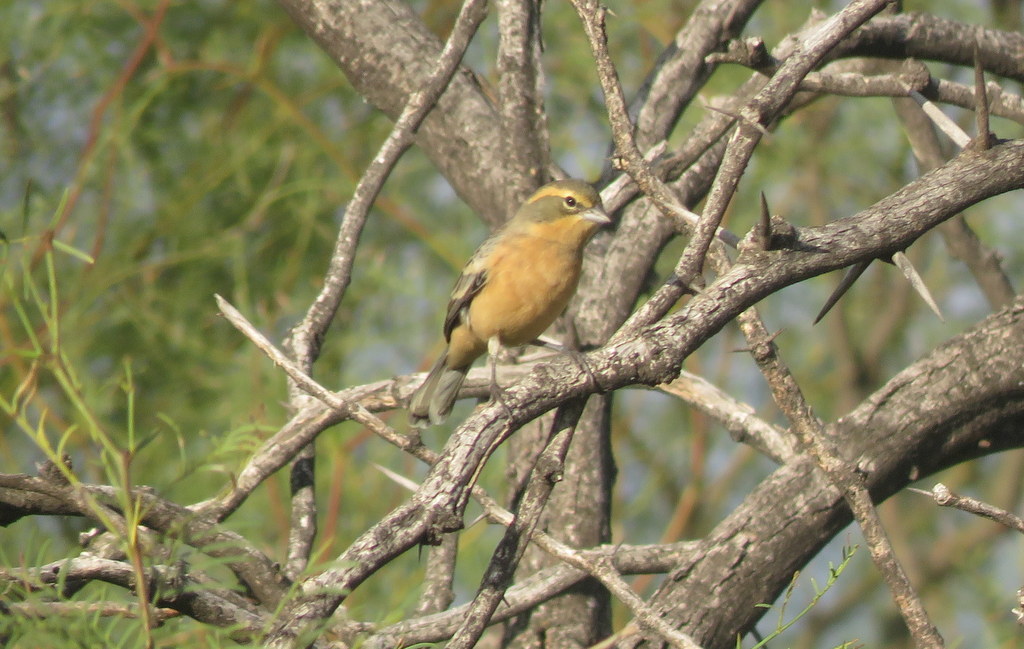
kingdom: Animalia
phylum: Chordata
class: Aves
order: Passeriformes
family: Thraupidae
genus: Poospiza
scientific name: Poospiza ornata
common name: Cinnamon warbling finch
